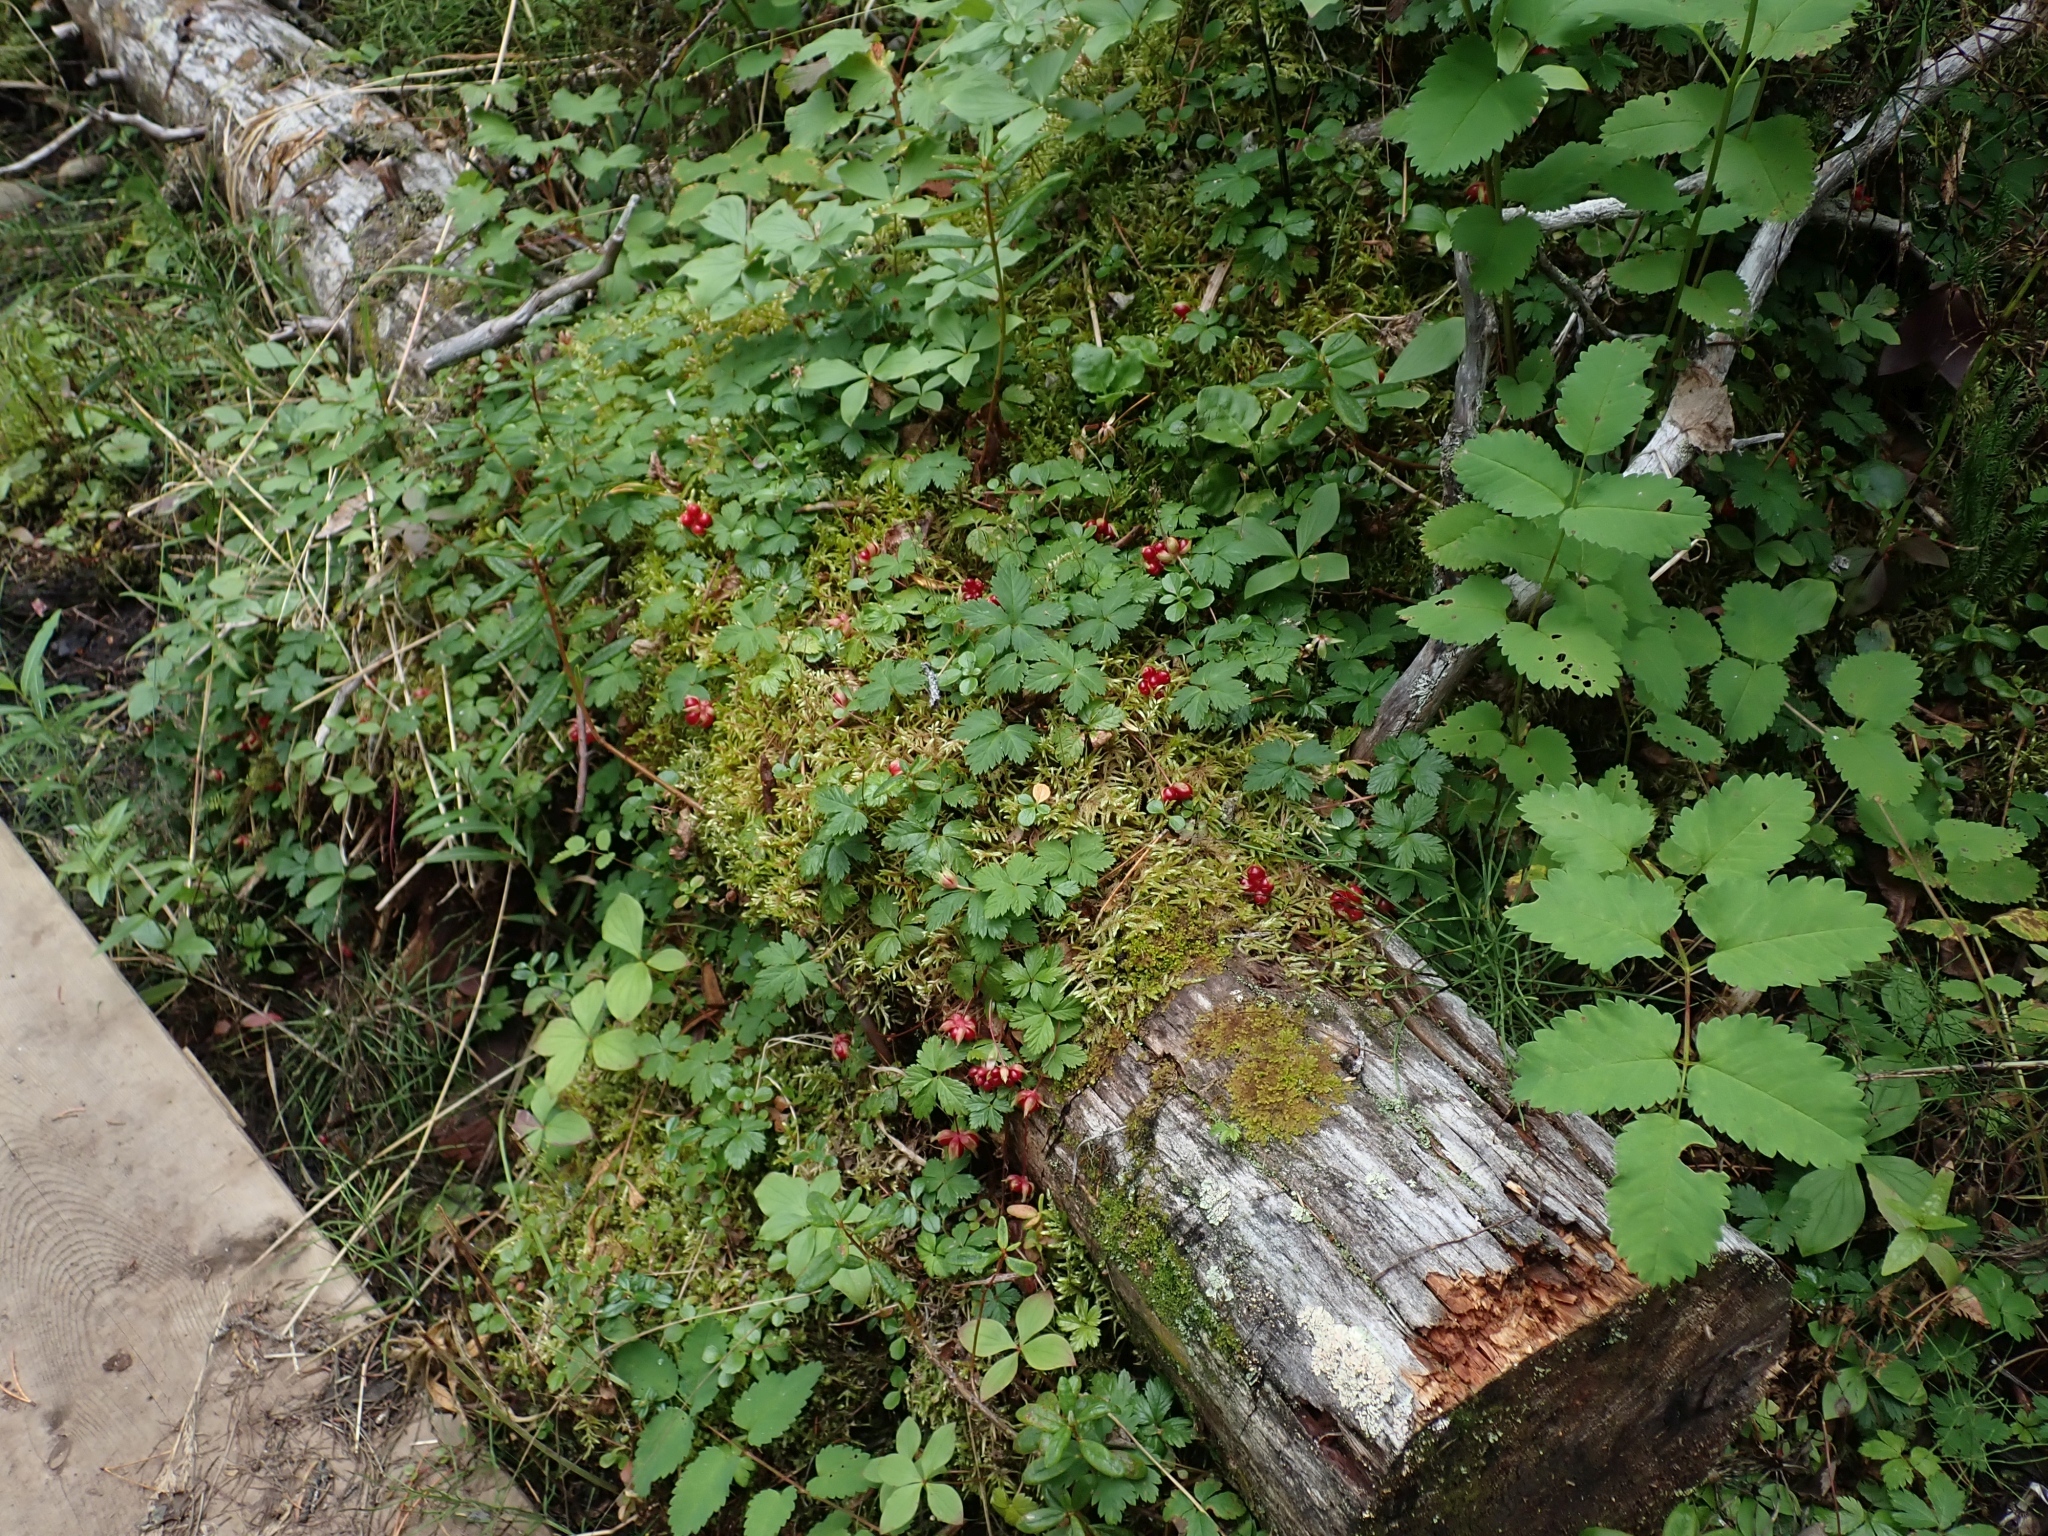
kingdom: Plantae
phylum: Tracheophyta
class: Magnoliopsida
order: Rosales
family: Rosaceae
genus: Rubus
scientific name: Rubus pedatus
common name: Creeping raspberry
